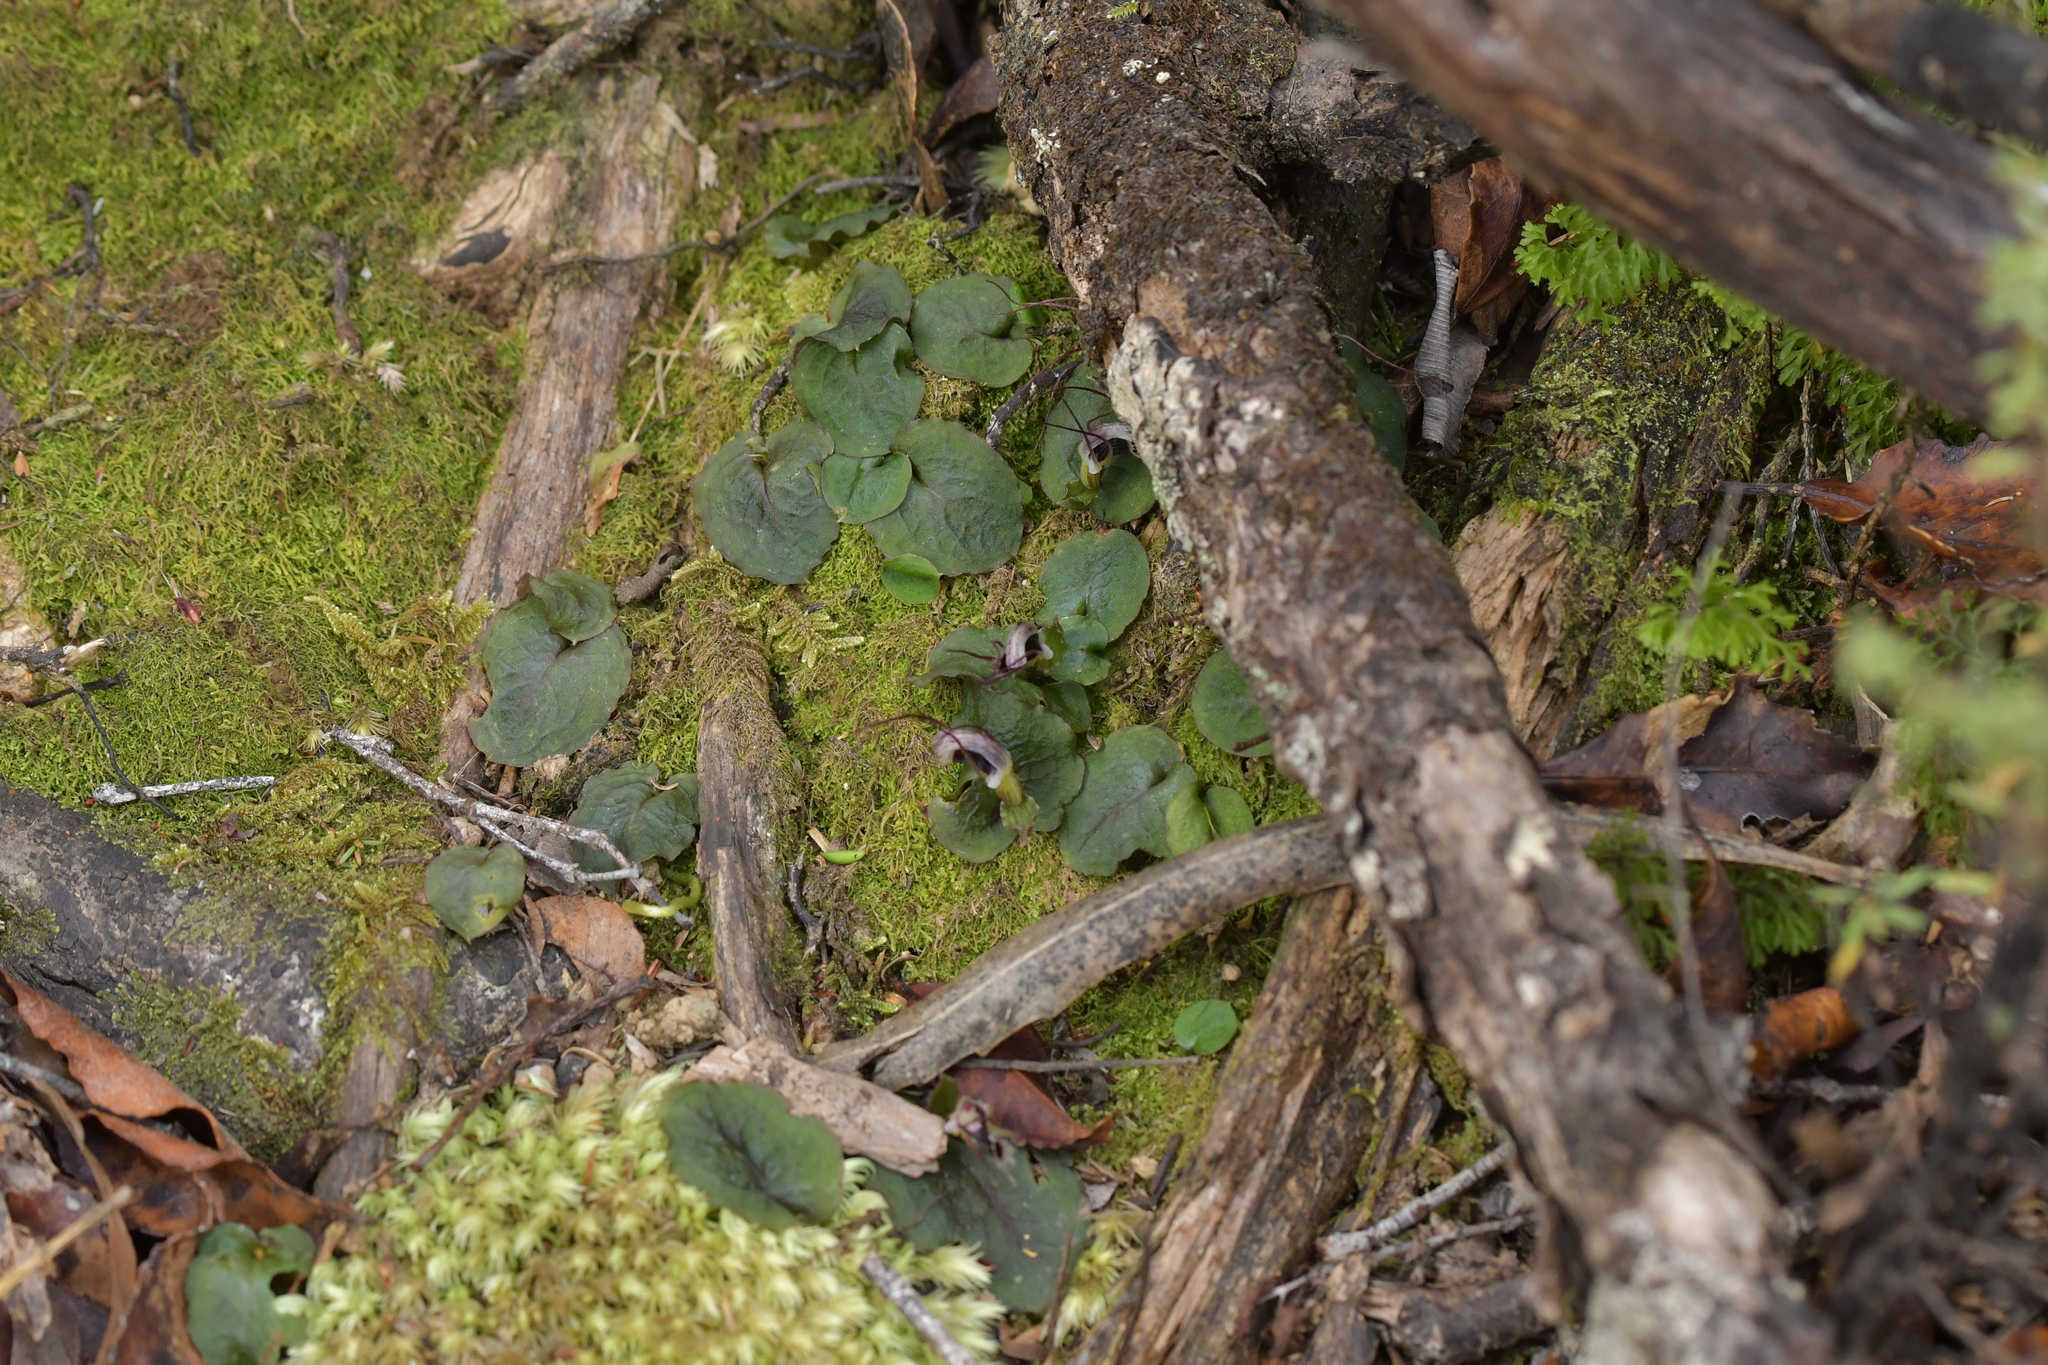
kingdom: Plantae
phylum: Tracheophyta
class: Liliopsida
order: Asparagales
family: Orchidaceae
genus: Corybas
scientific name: Corybas oblongus
